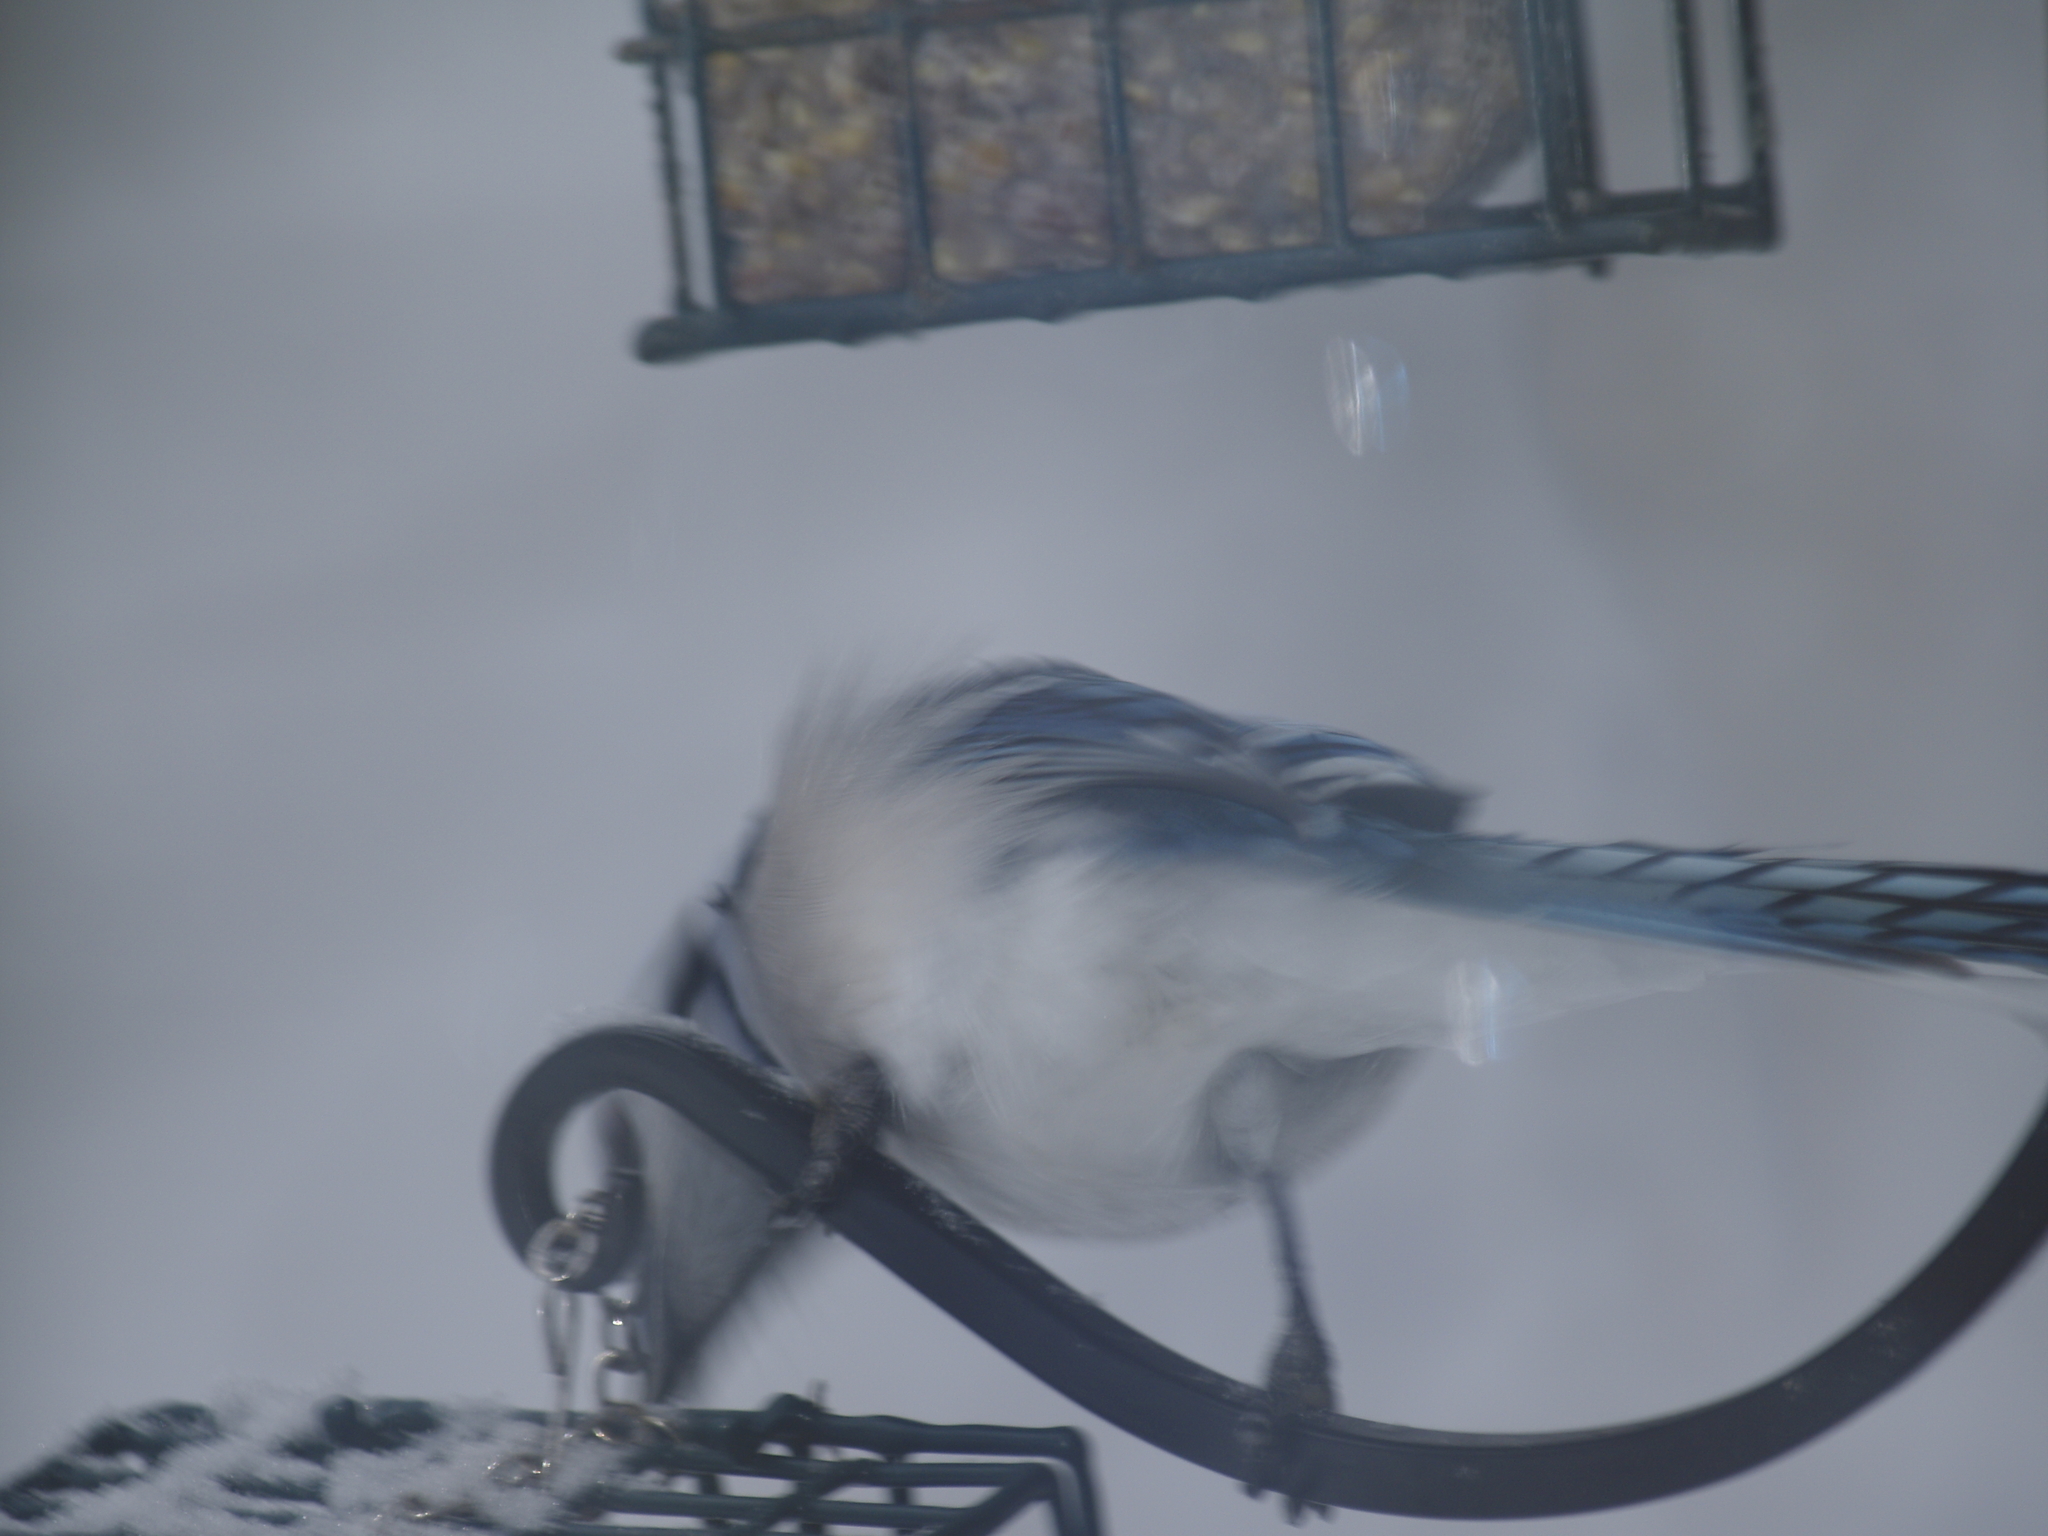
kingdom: Animalia
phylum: Chordata
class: Aves
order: Passeriformes
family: Corvidae
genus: Cyanocitta
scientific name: Cyanocitta cristata
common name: Blue jay
